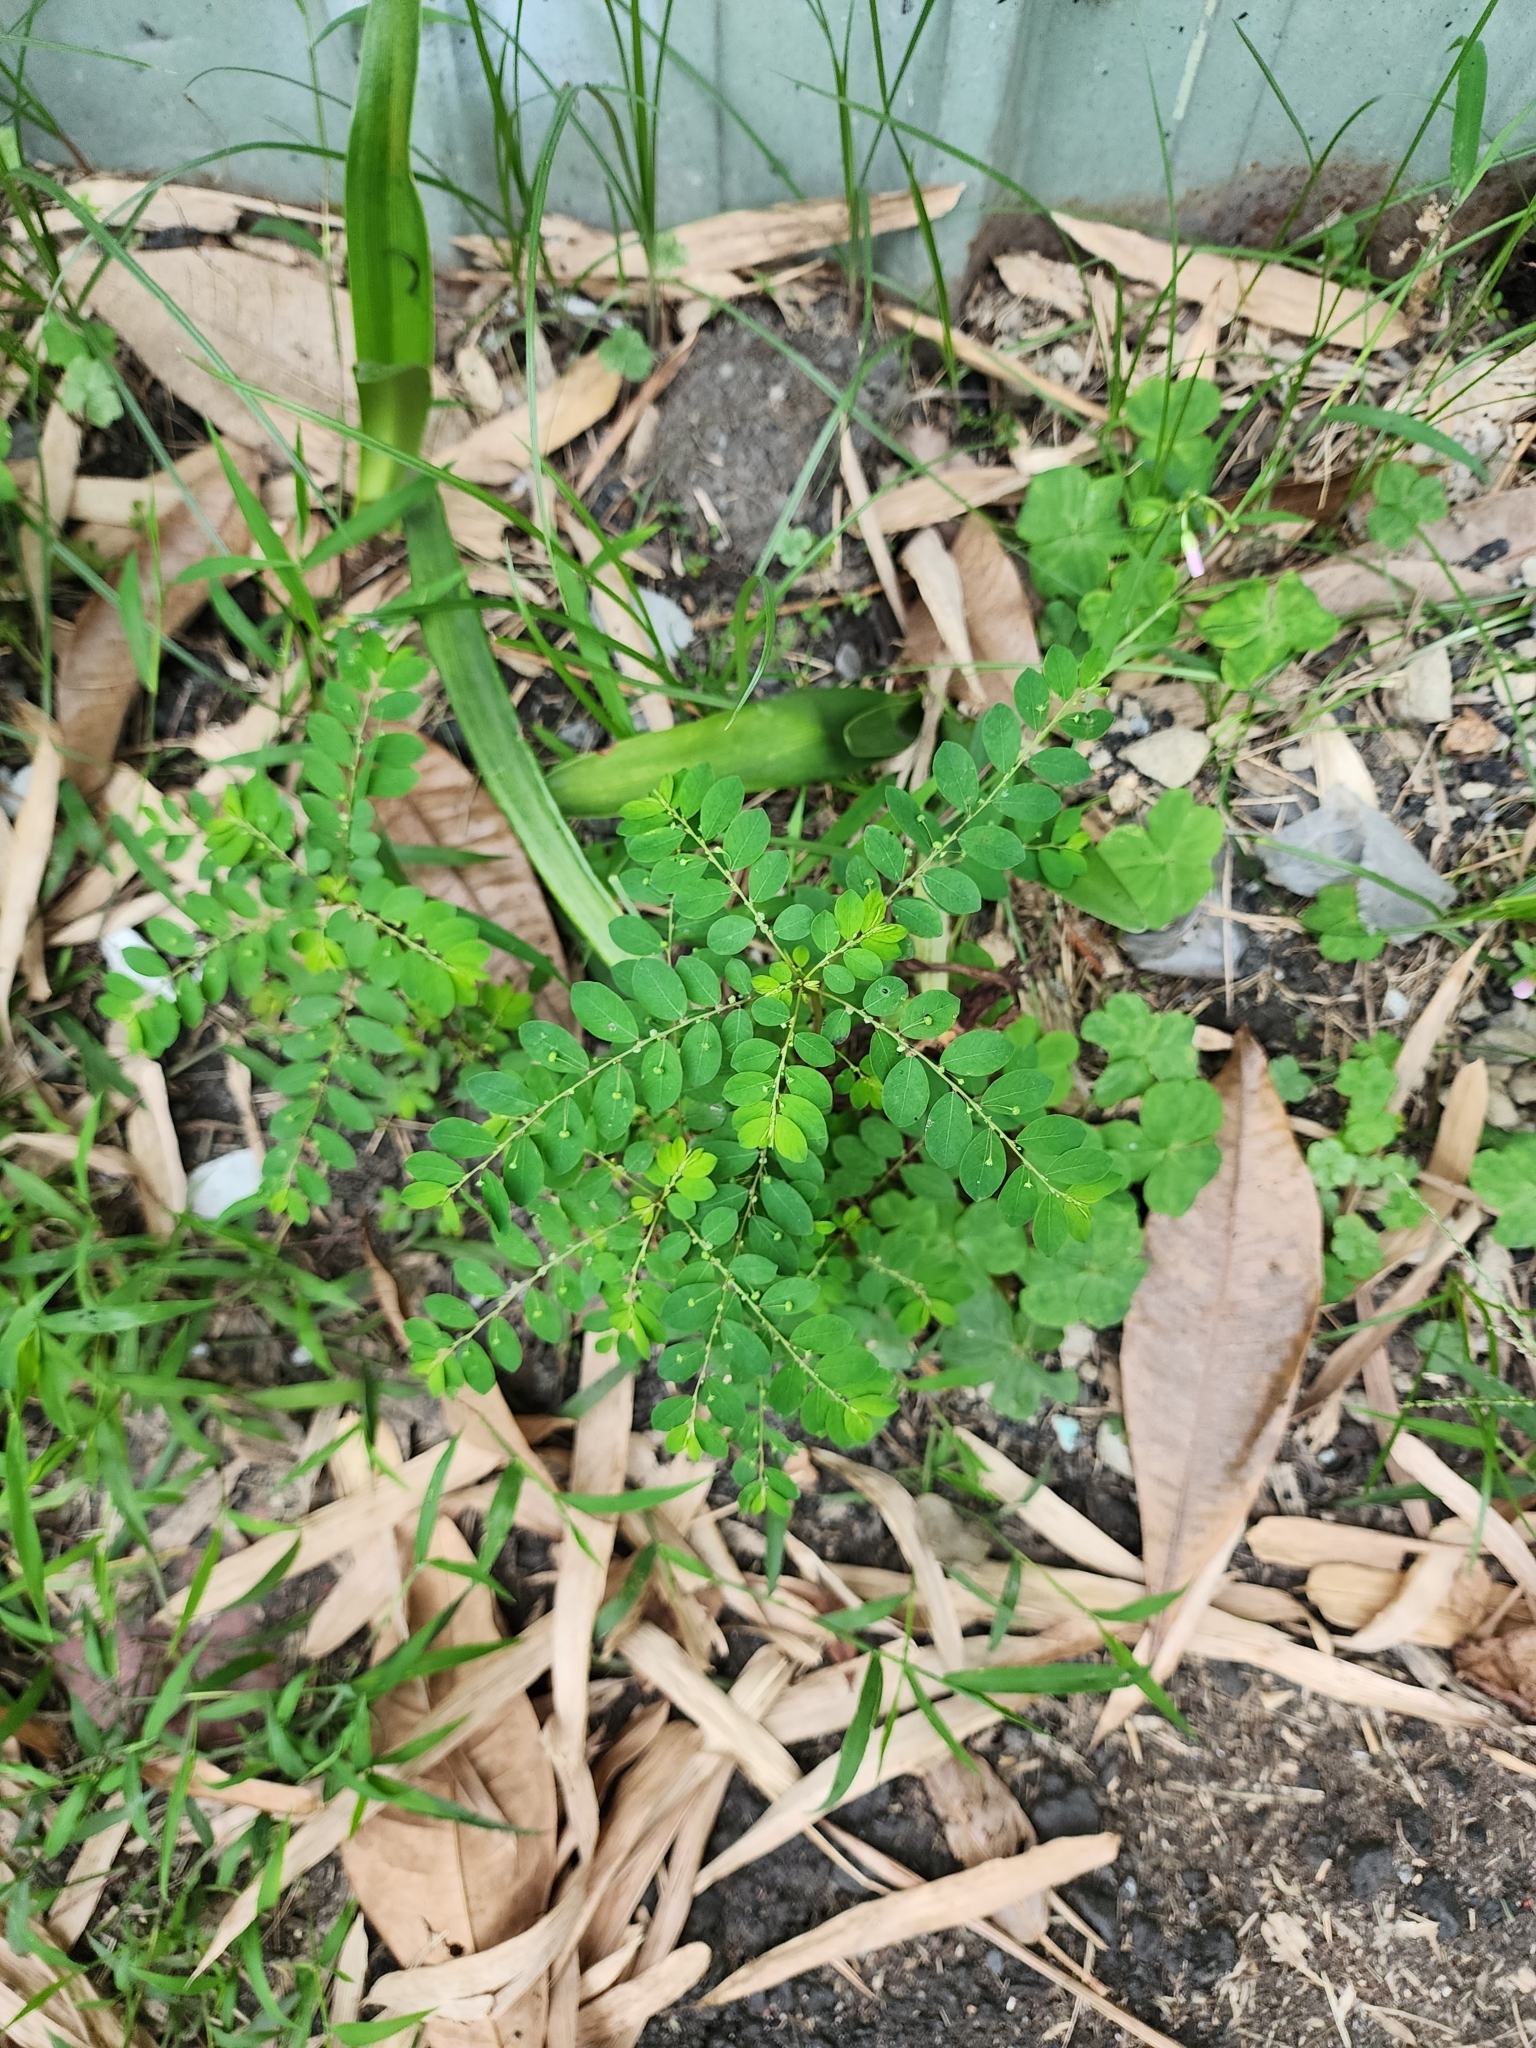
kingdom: Plantae
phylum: Tracheophyta
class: Magnoliopsida
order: Malpighiales
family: Phyllanthaceae
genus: Phyllanthus
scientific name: Phyllanthus tenellus
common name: Mascarene island leaf-flower
